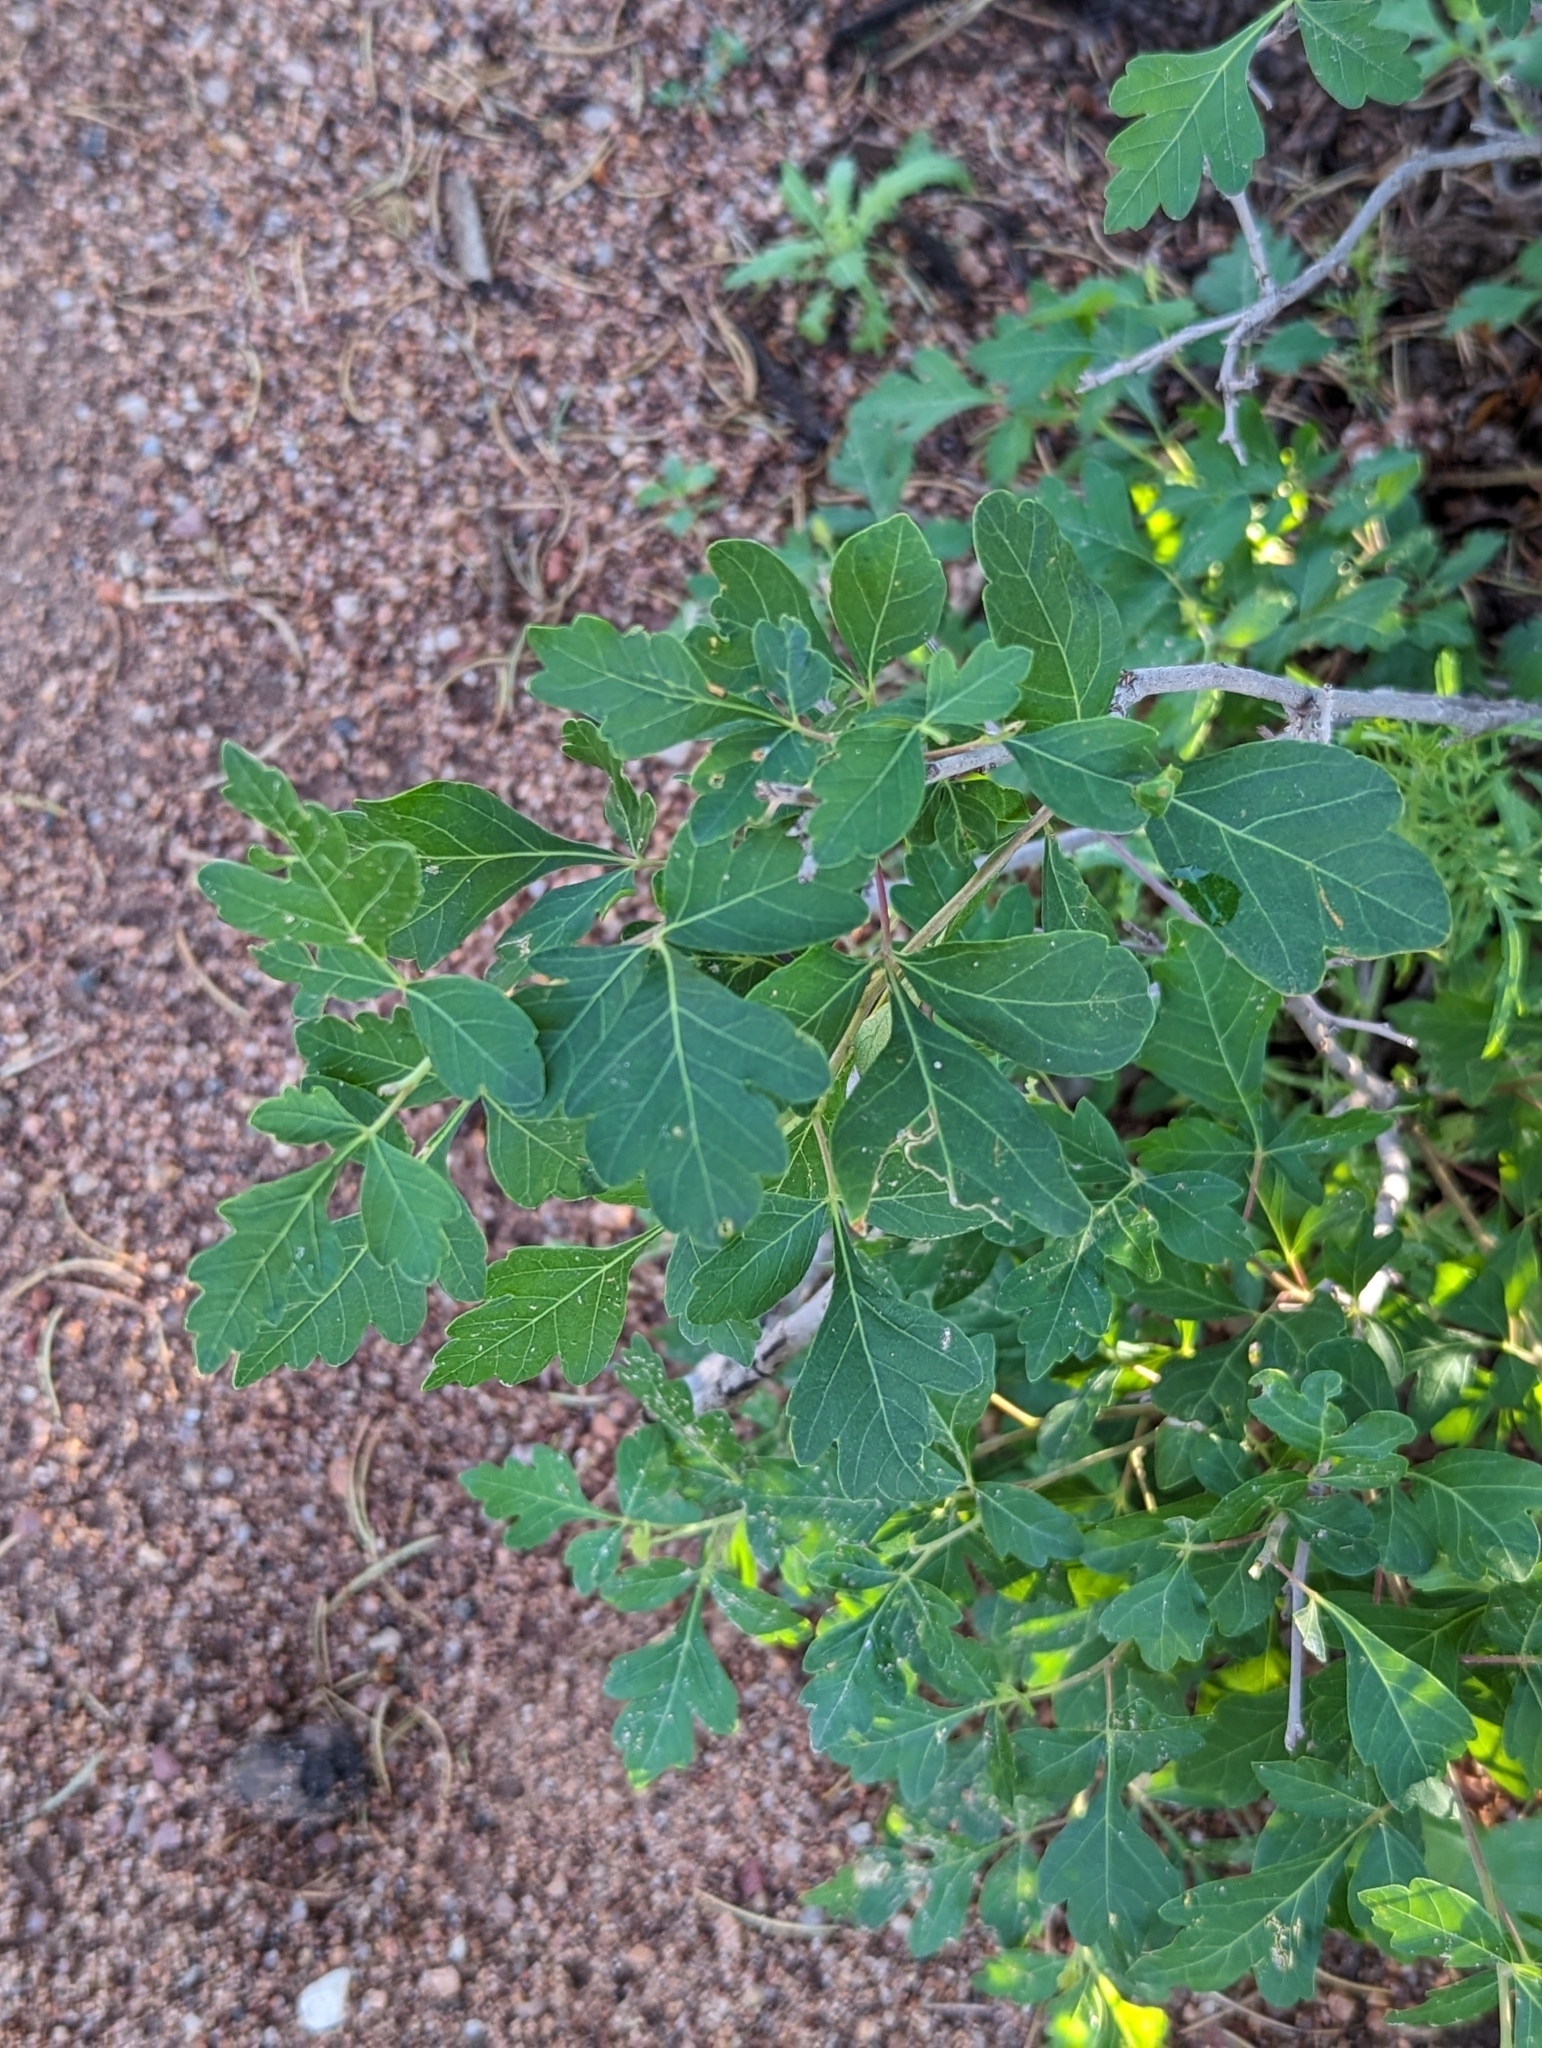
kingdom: Plantae
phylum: Tracheophyta
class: Magnoliopsida
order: Sapindales
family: Anacardiaceae
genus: Rhus
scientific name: Rhus trilobata
